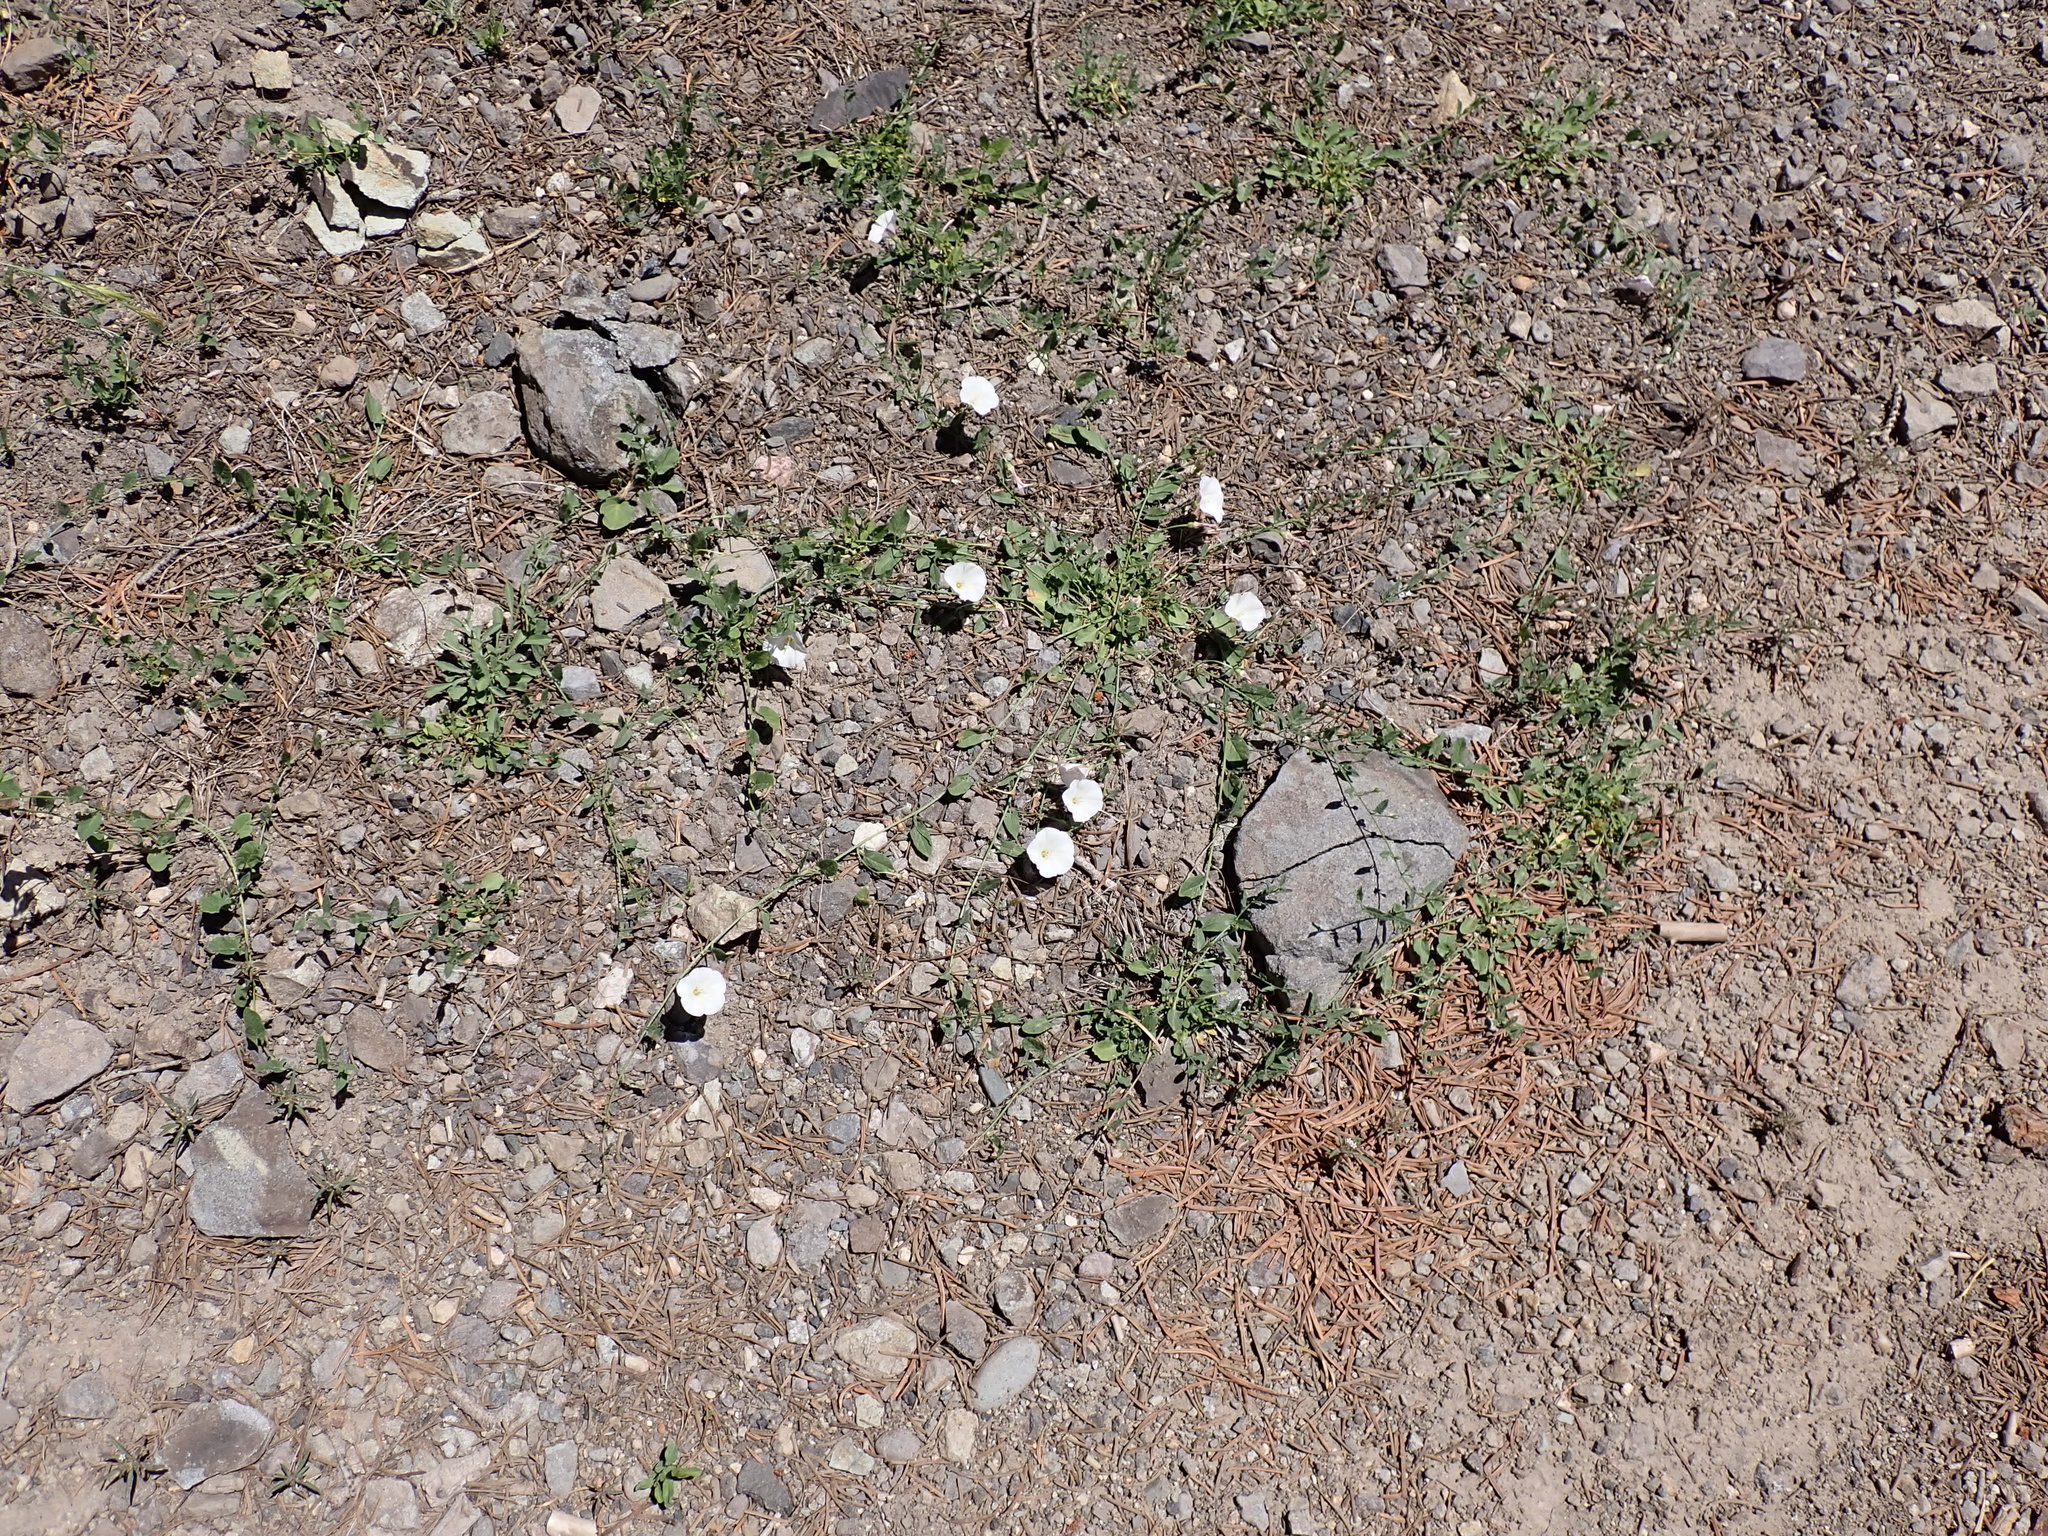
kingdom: Plantae
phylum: Tracheophyta
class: Magnoliopsida
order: Solanales
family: Convolvulaceae
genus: Convolvulus
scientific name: Convolvulus arvensis
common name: Field bindweed
